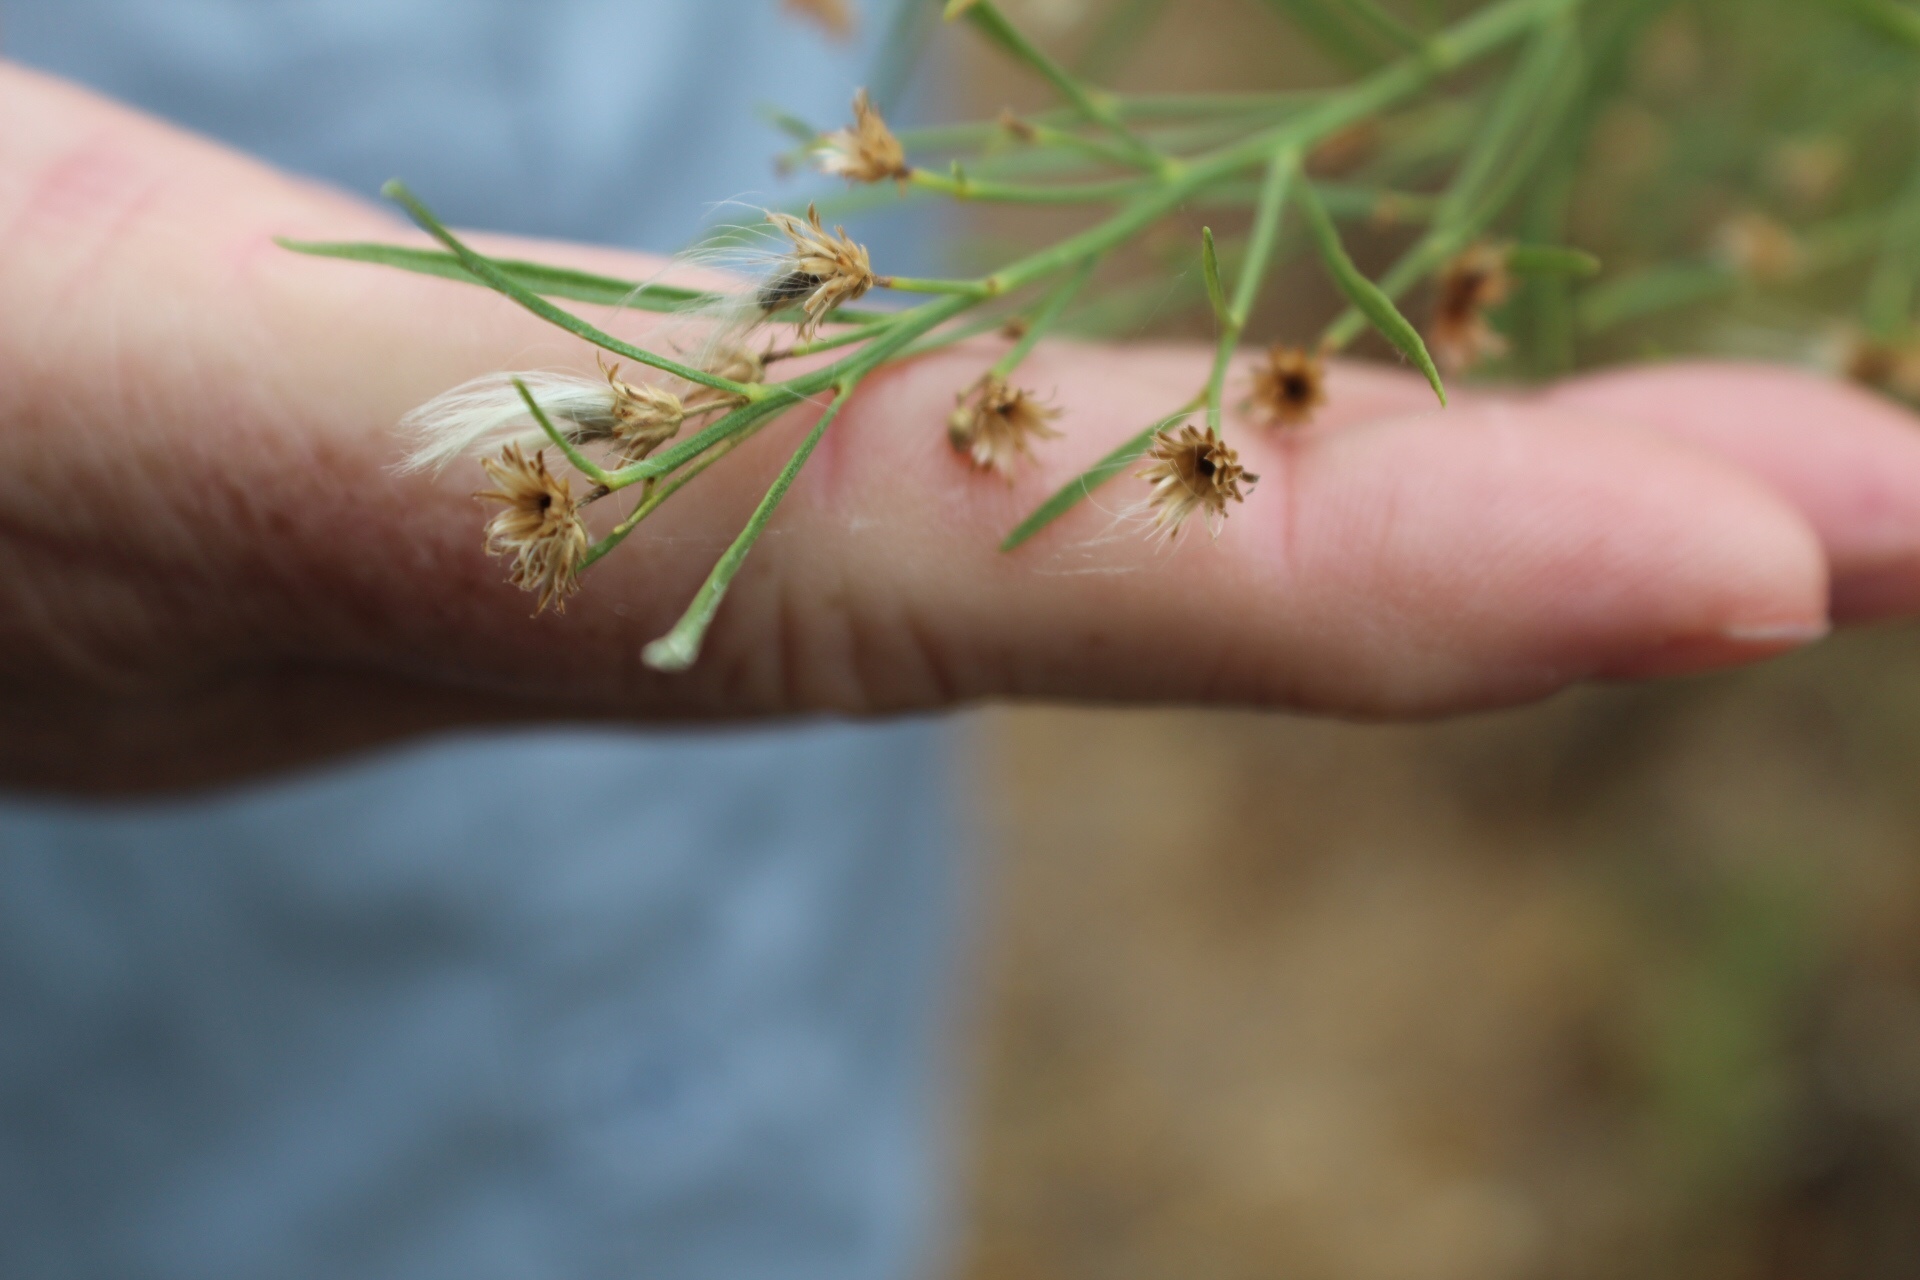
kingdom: Plantae
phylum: Tracheophyta
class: Magnoliopsida
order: Asterales
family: Asteraceae
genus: Baccharis
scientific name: Baccharis neglecta
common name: Roosevelt-weed
